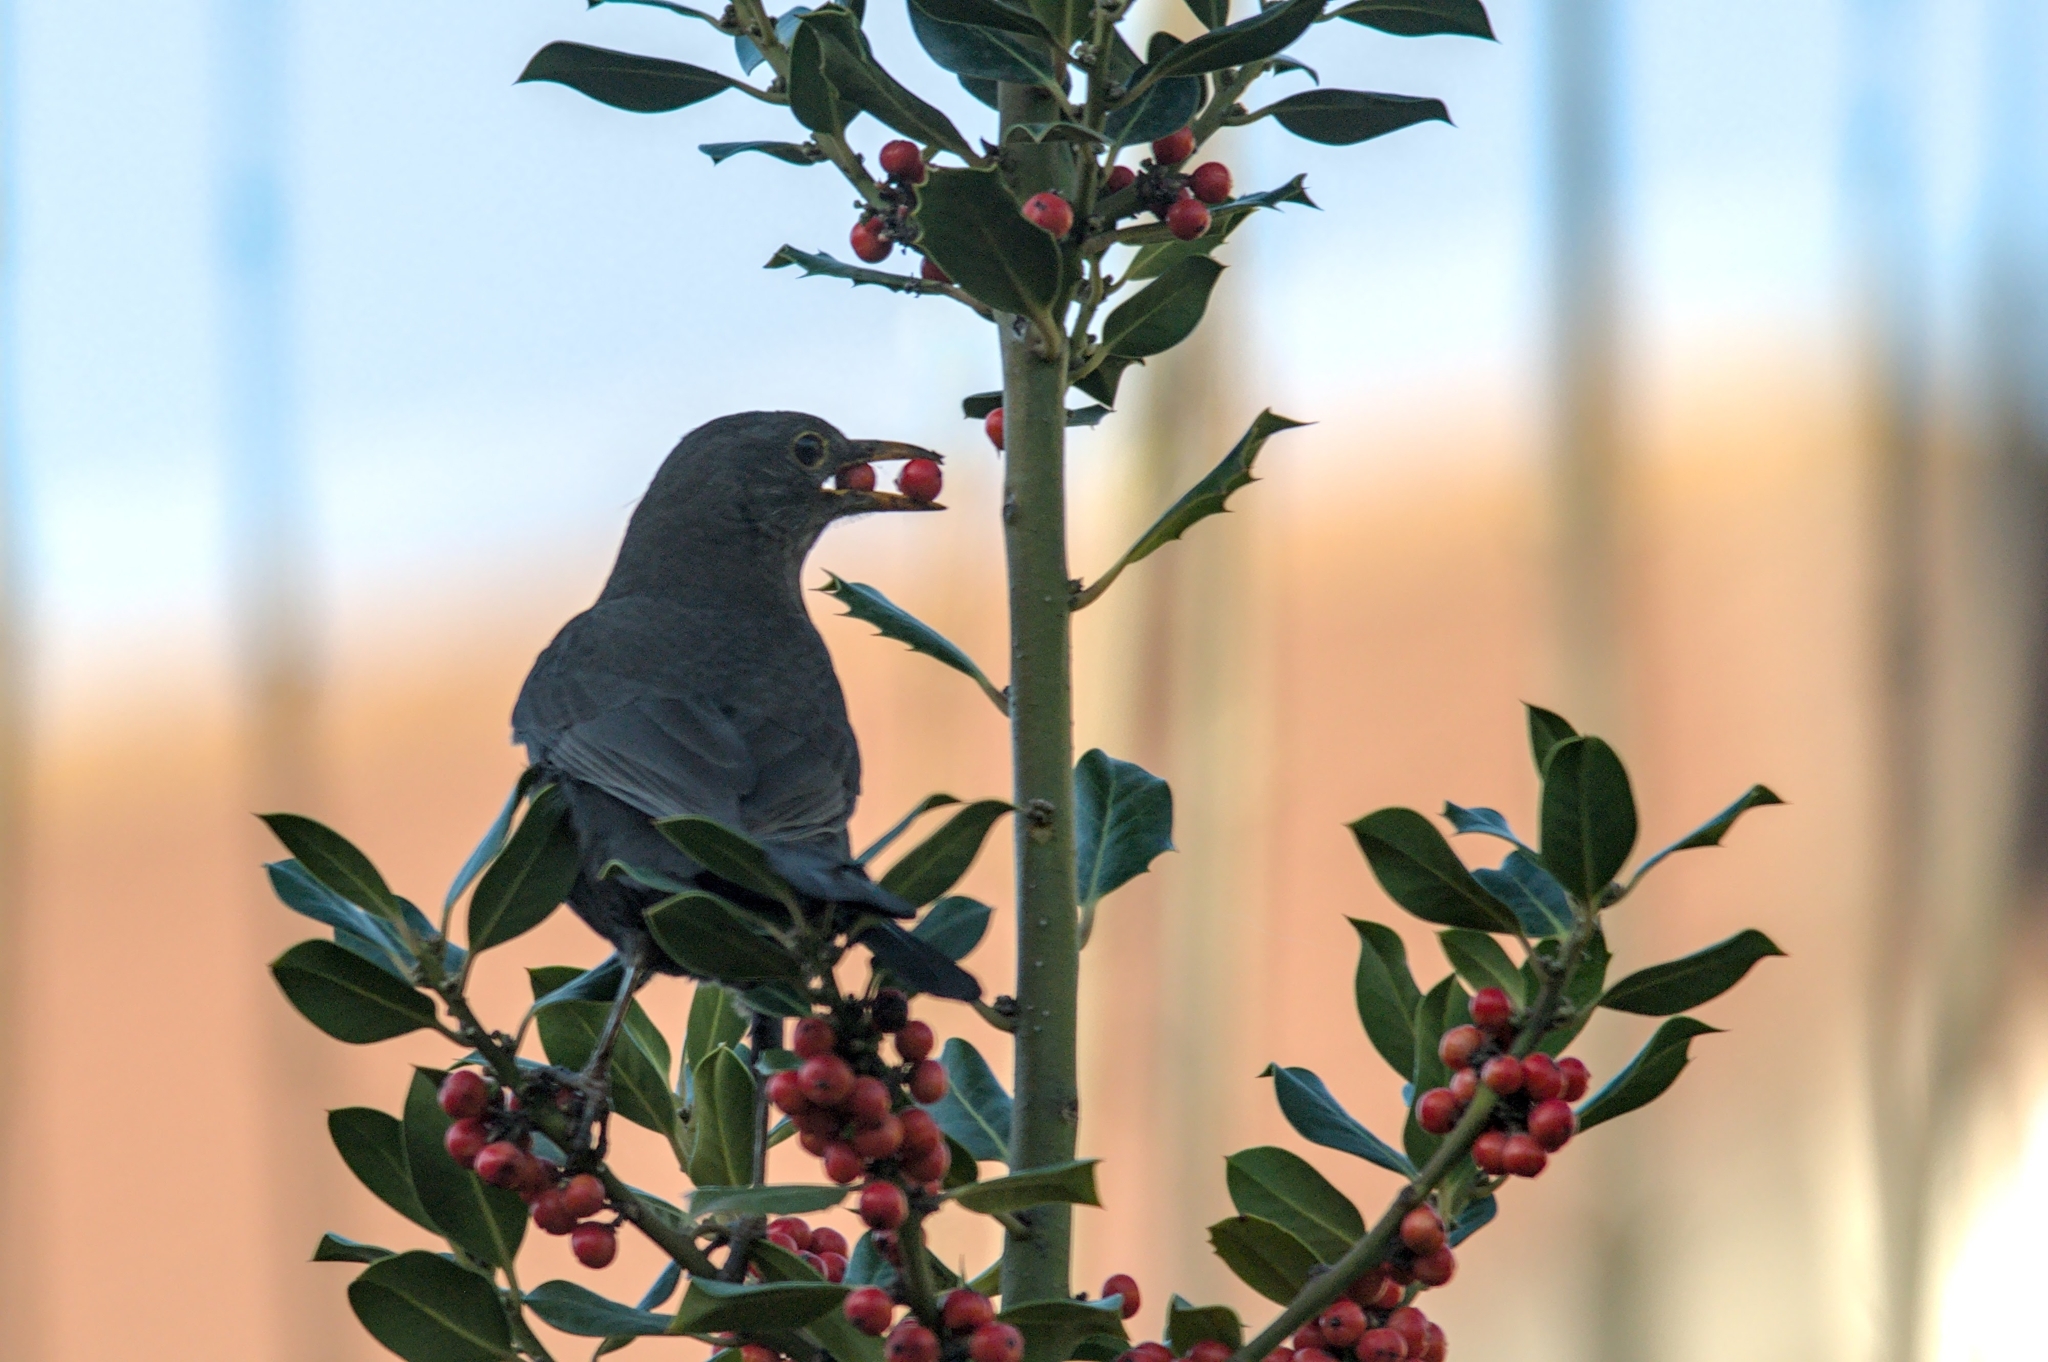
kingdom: Animalia
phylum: Chordata
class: Aves
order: Passeriformes
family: Turdidae
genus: Turdus
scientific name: Turdus merula
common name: Common blackbird
